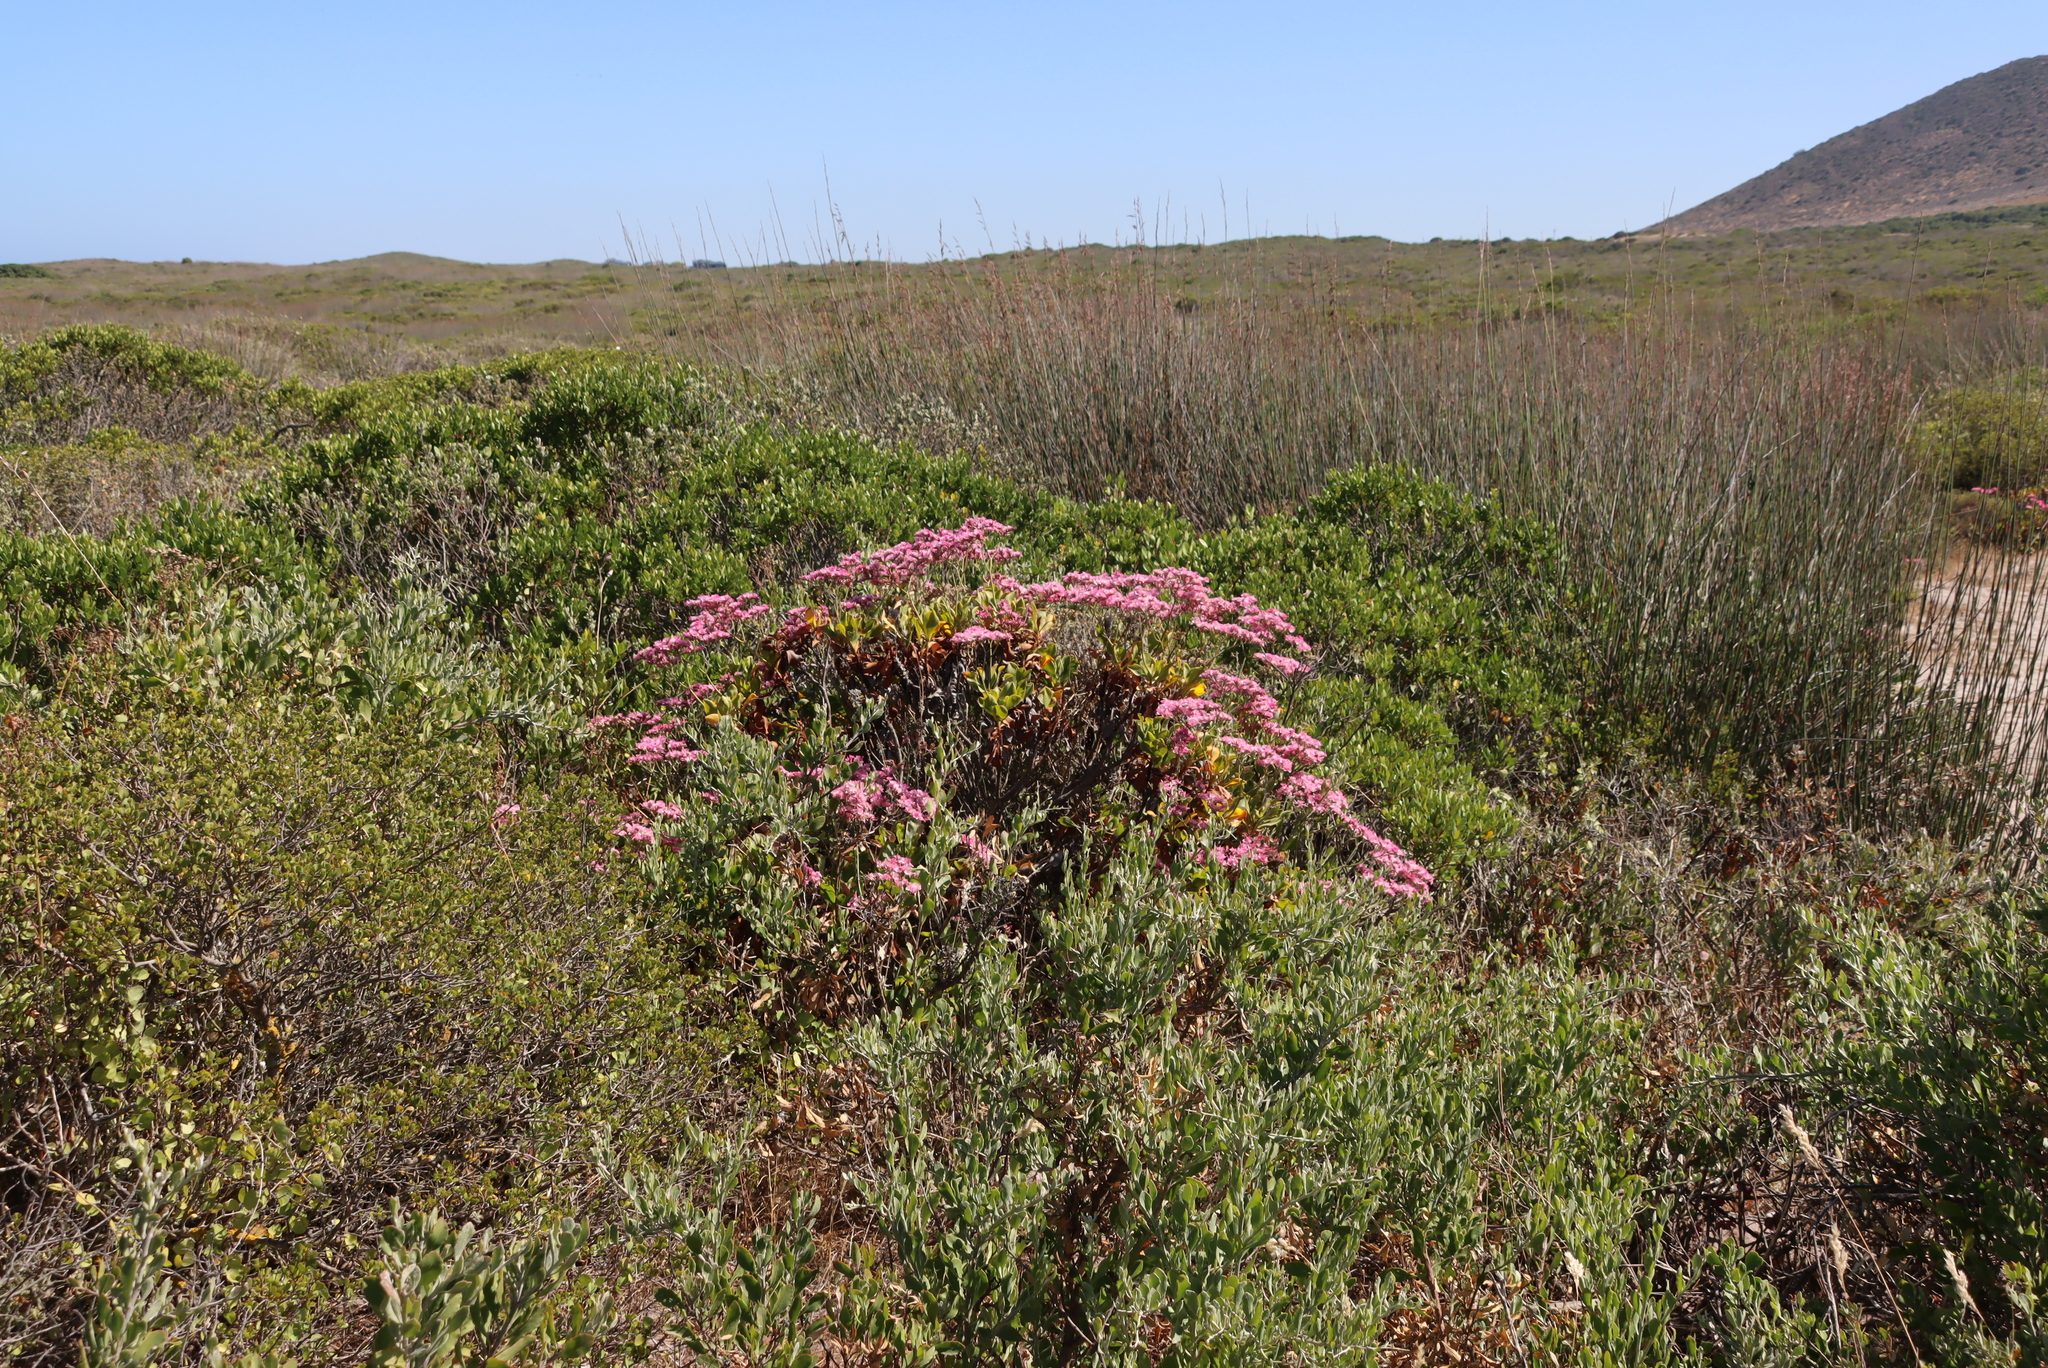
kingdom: Plantae
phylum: Tracheophyta
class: Magnoliopsida
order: Caryophyllales
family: Plumbaginaceae
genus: Limonium
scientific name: Limonium peregrinum
